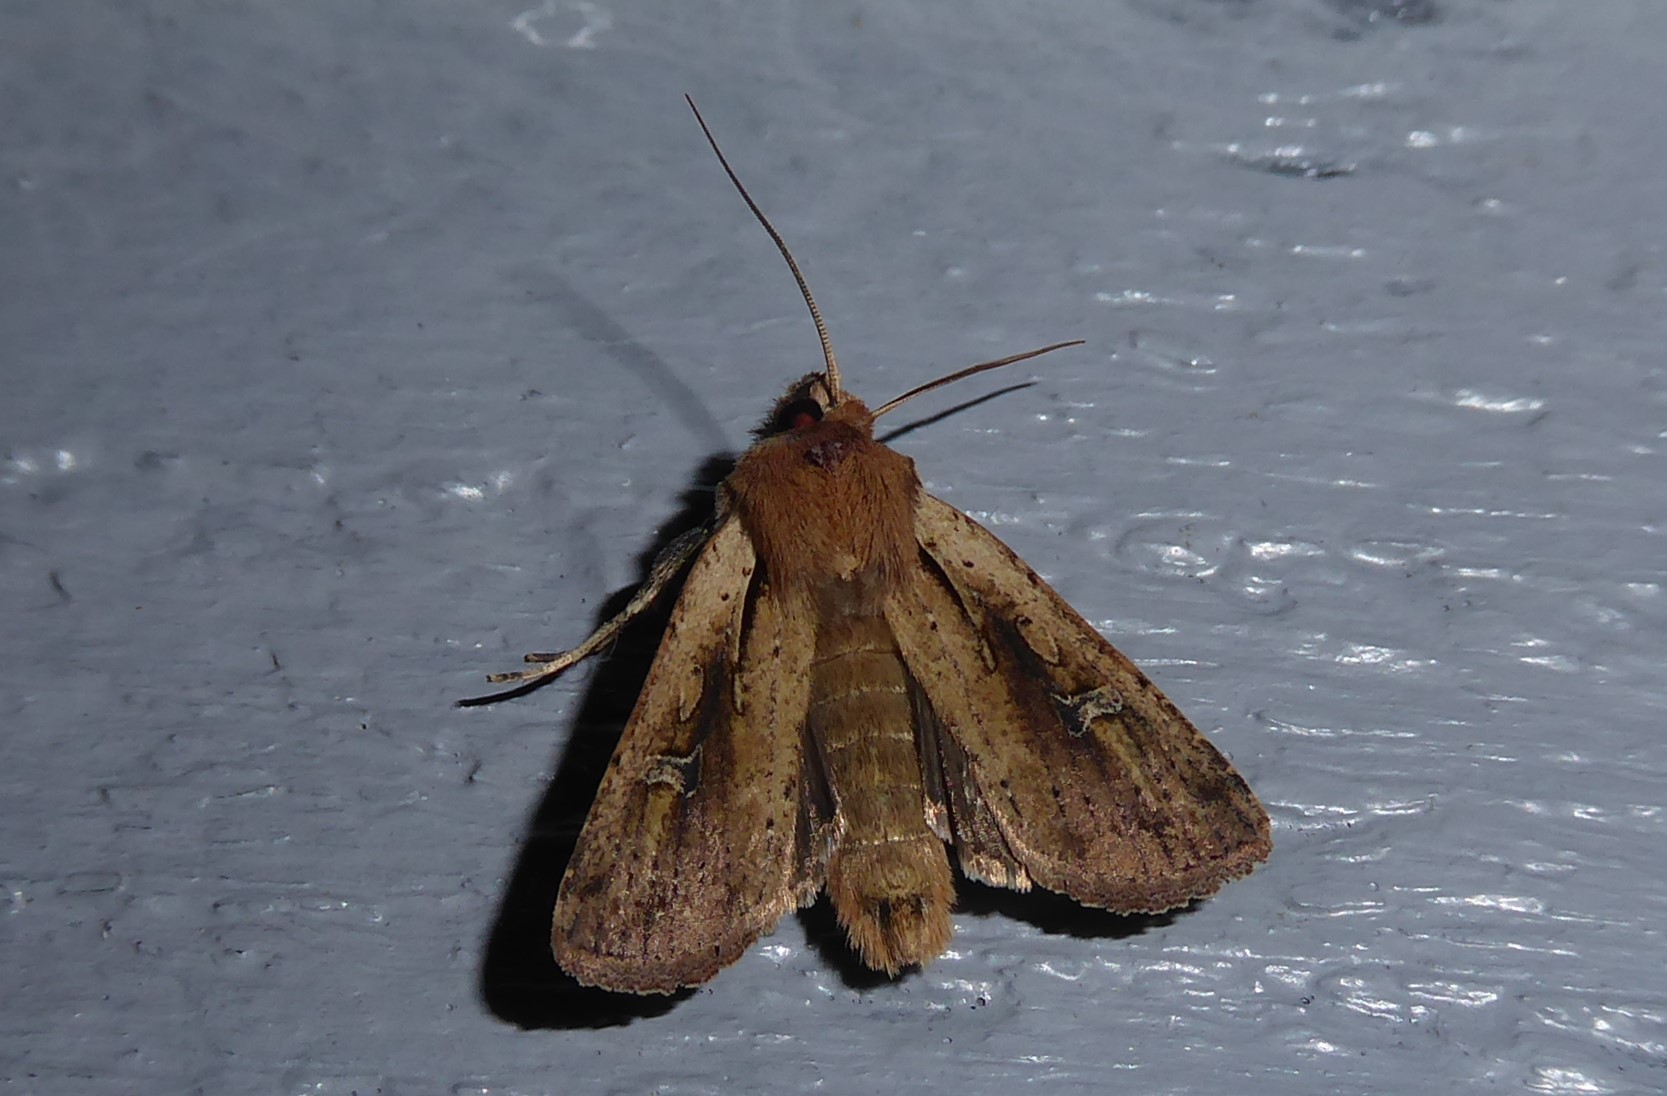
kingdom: Animalia
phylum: Arthropoda
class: Insecta
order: Lepidoptera
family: Noctuidae
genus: Ichneutica
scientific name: Ichneutica atristriga
